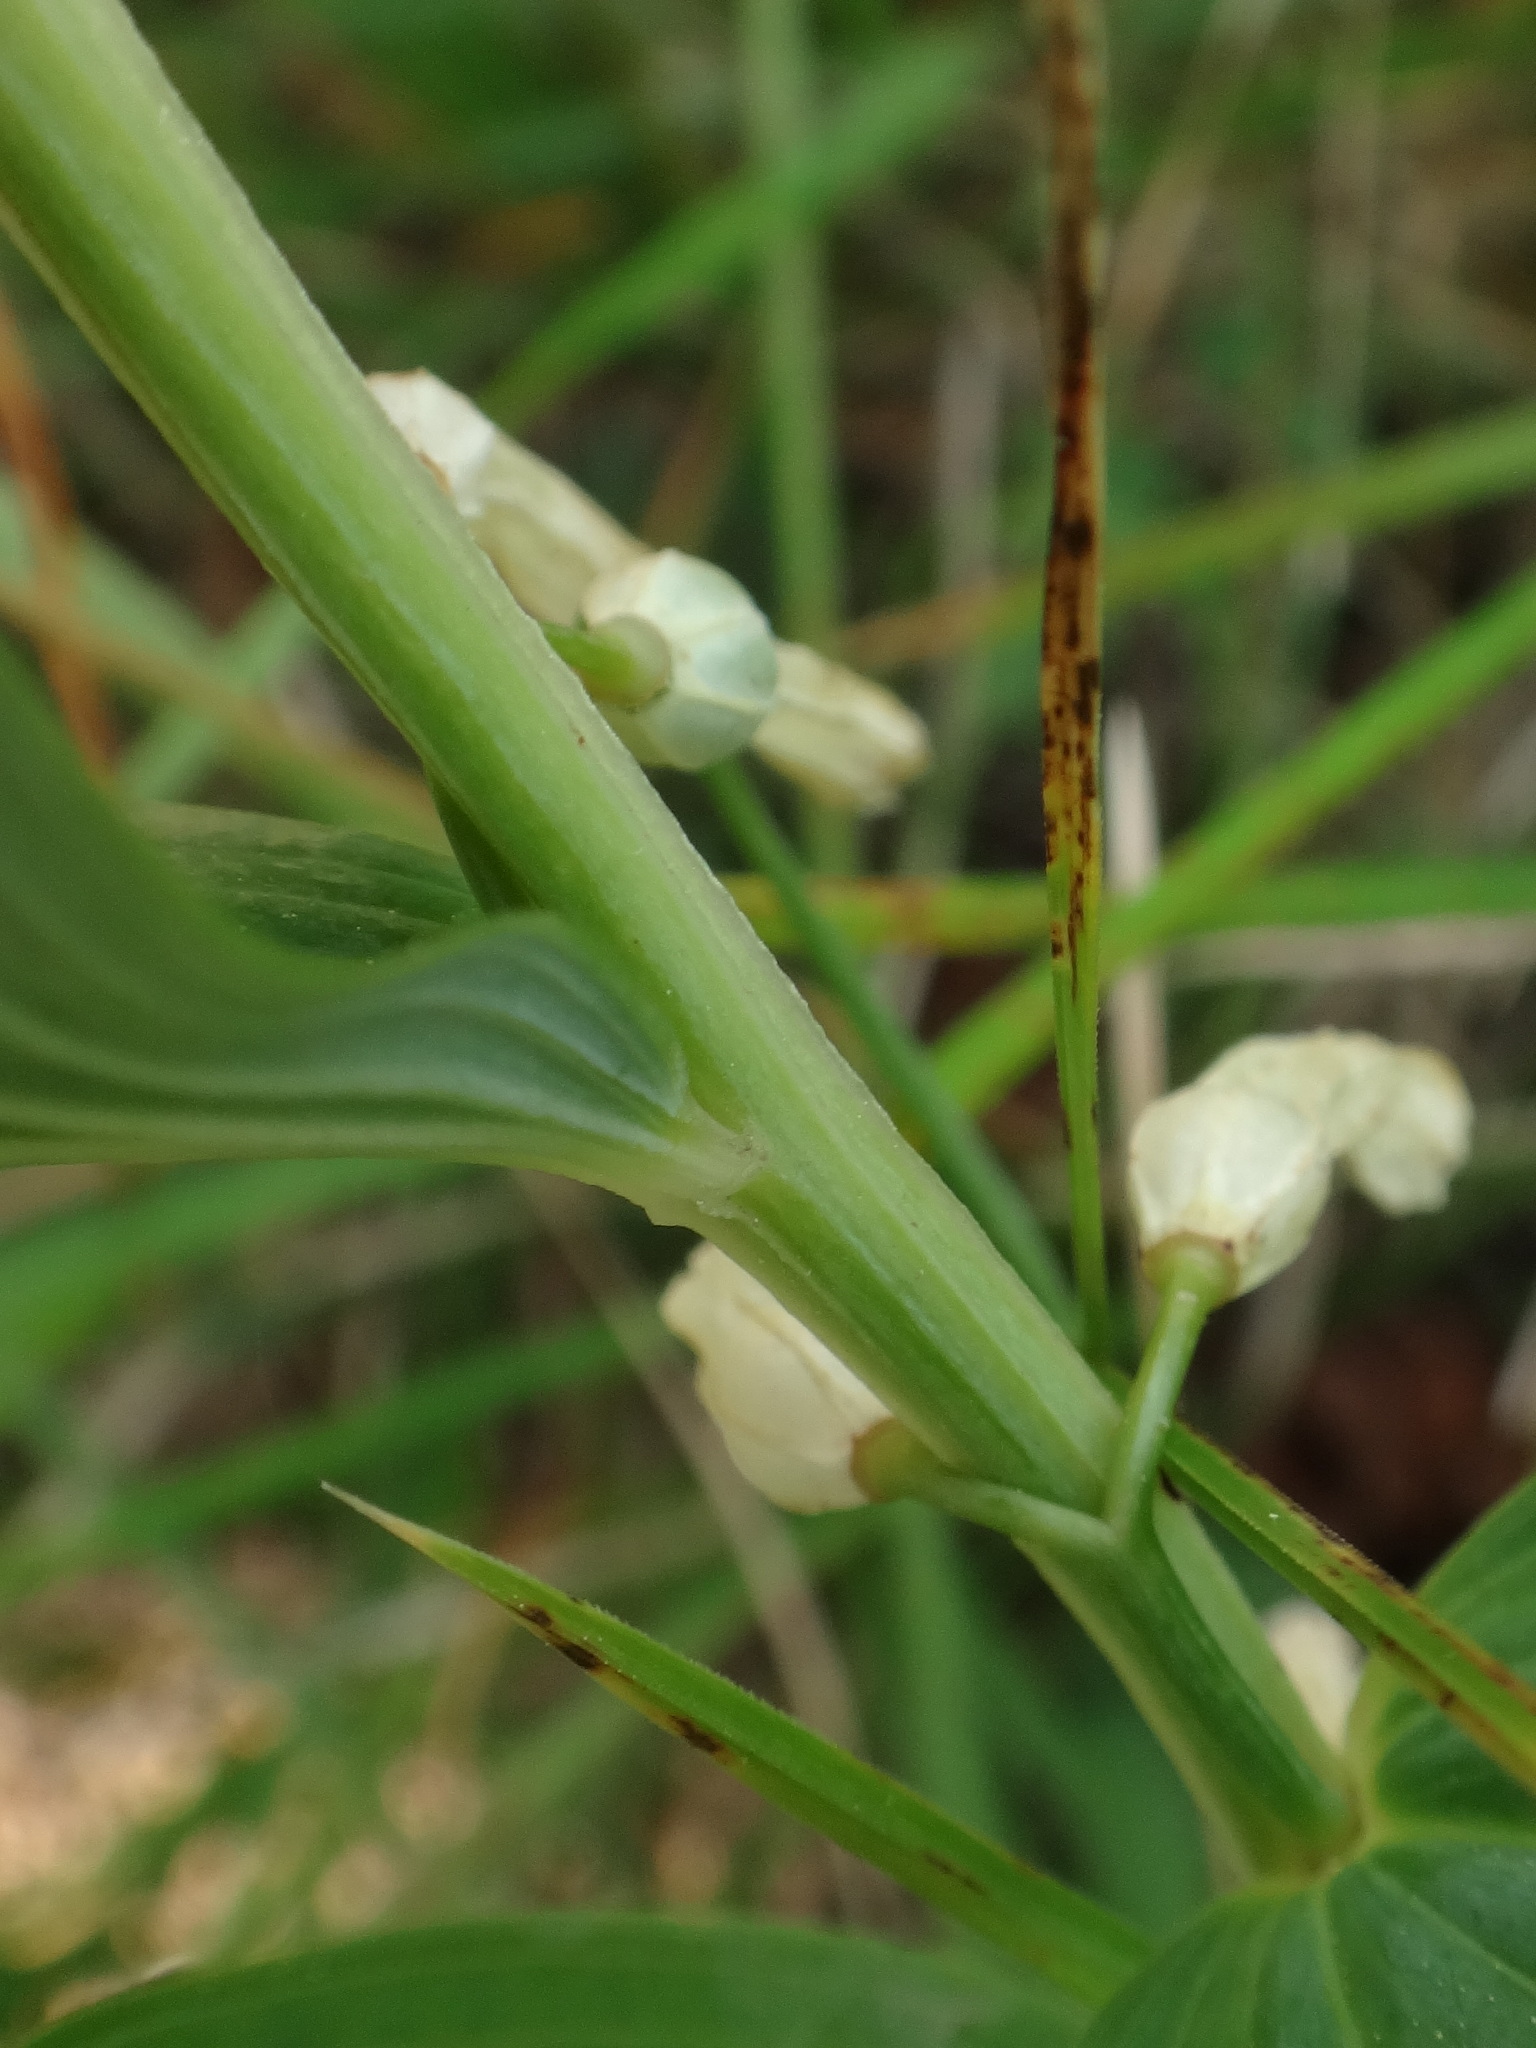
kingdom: Plantae
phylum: Tracheophyta
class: Liliopsida
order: Asparagales
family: Asparagaceae
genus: Polygonatum
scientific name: Polygonatum odoratum
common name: Angular solomon's-seal
